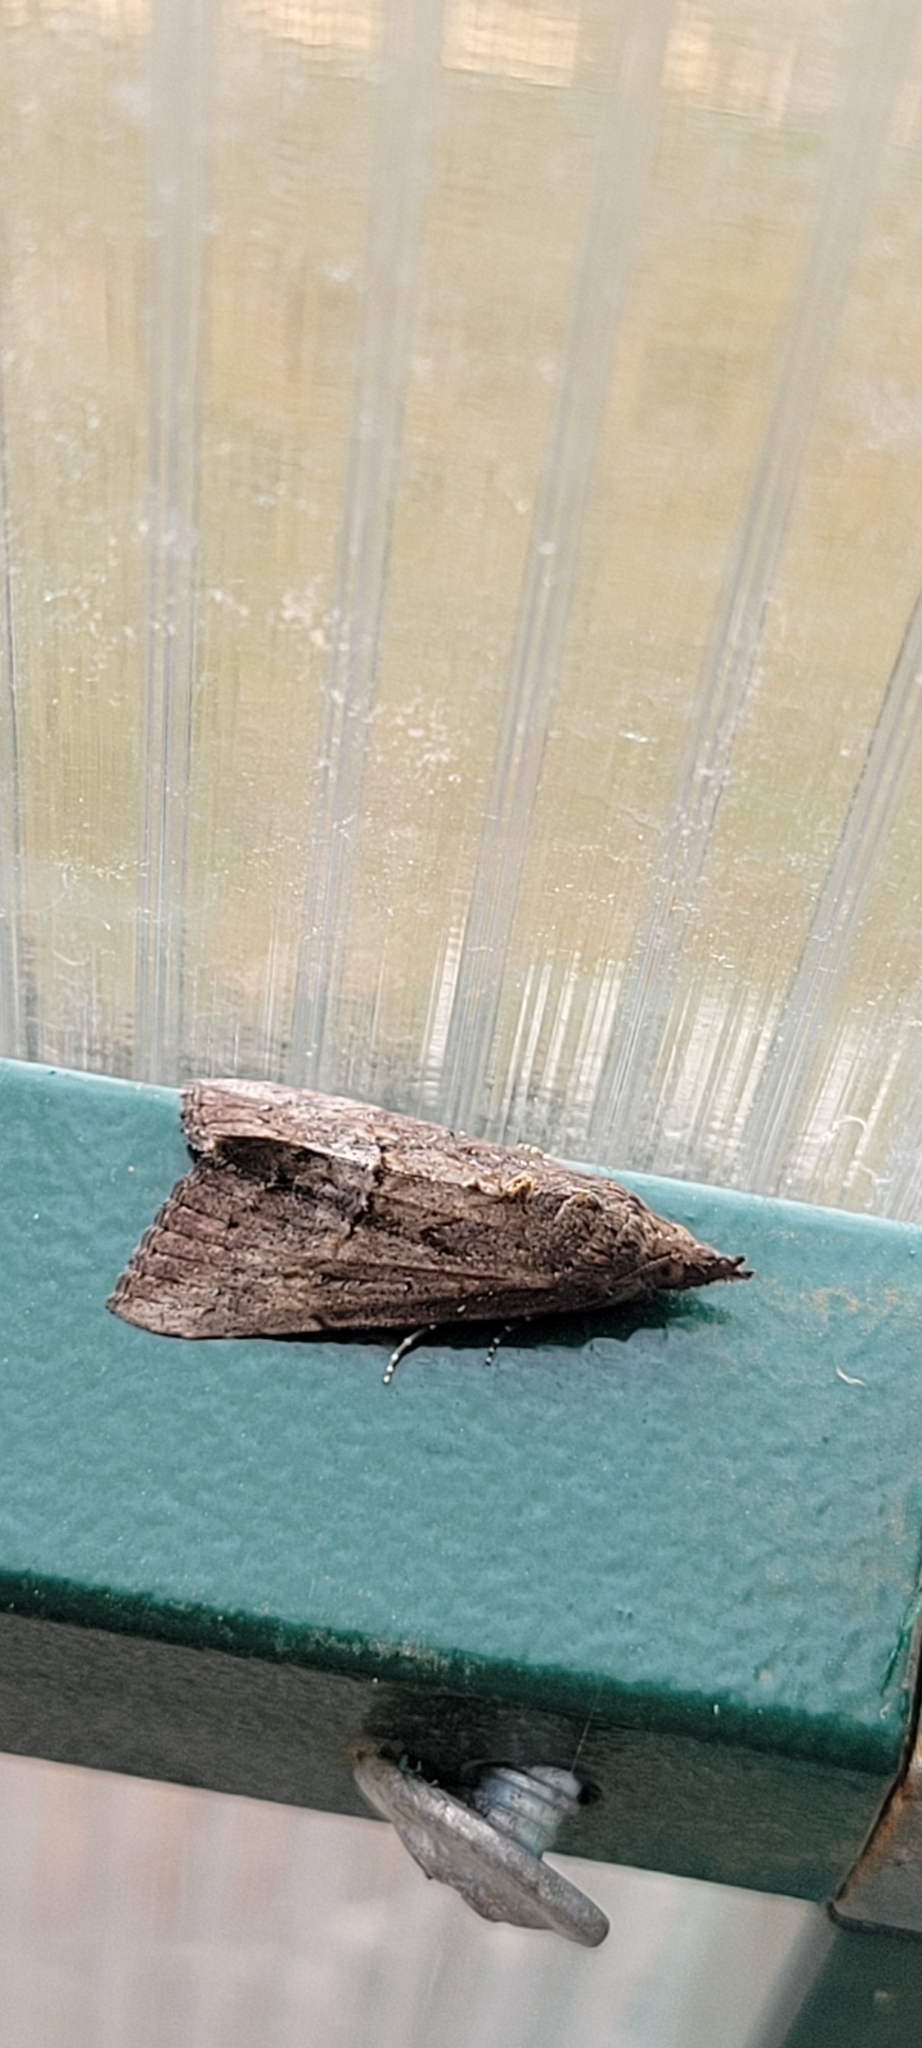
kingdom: Animalia
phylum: Arthropoda
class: Insecta
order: Lepidoptera
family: Erebidae
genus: Hypena
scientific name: Hypena scabra
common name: Green cloverworm
